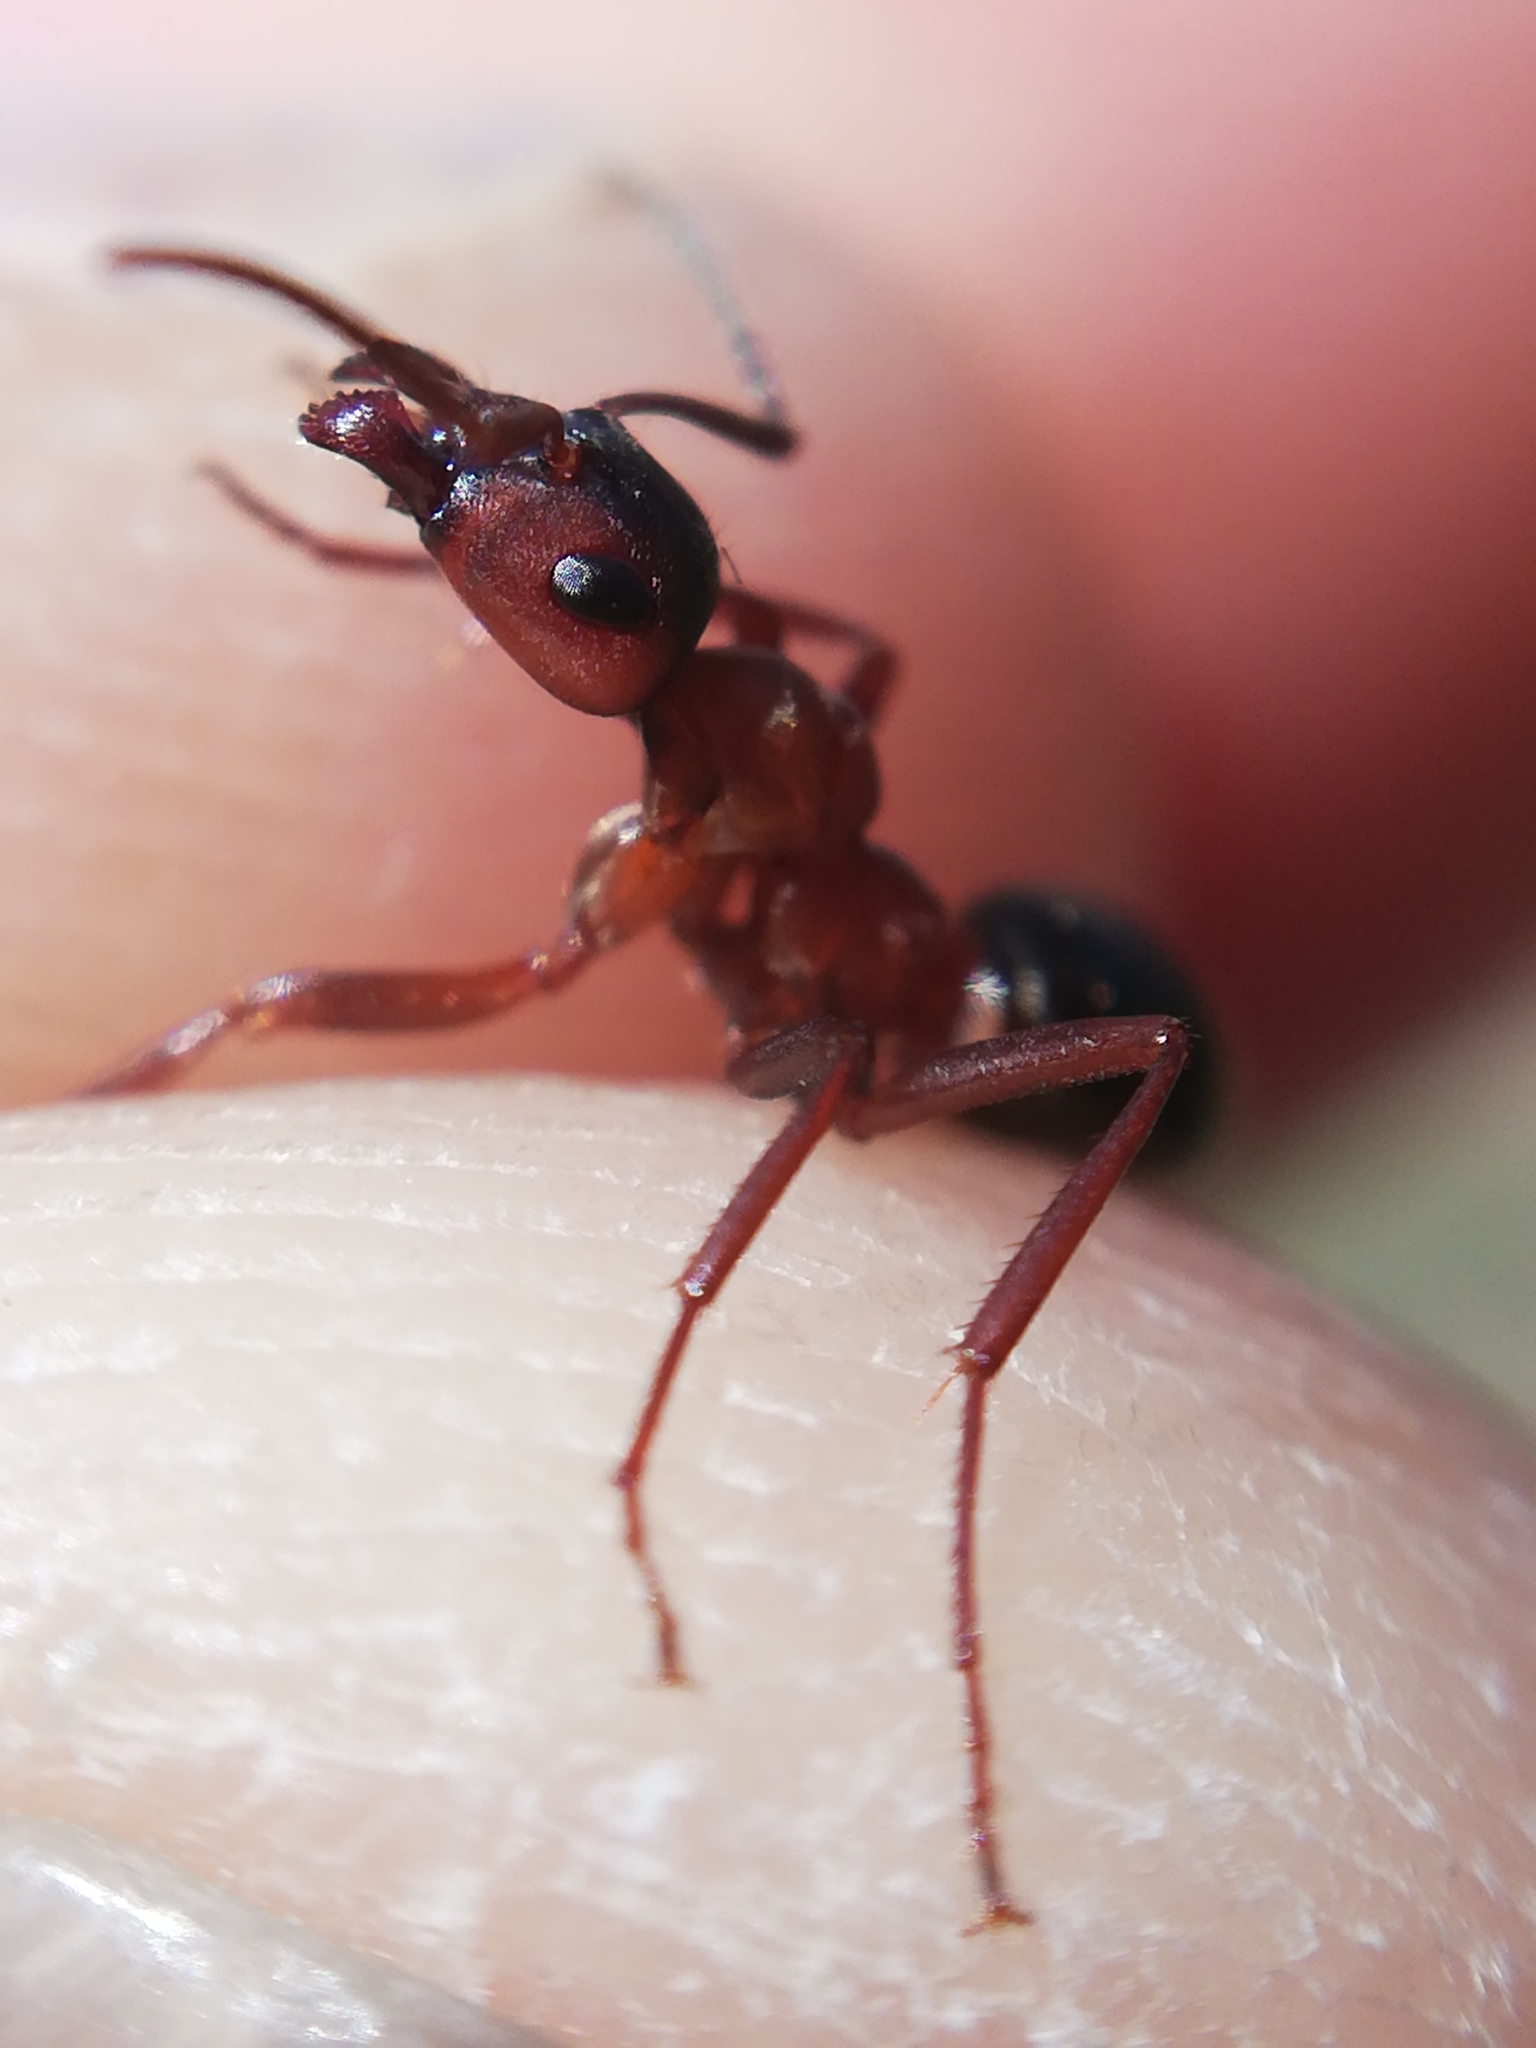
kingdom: Animalia
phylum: Arthropoda
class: Insecta
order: Hymenoptera
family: Formicidae
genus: Formica
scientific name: Formica sanguinea
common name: Blood-red ant
